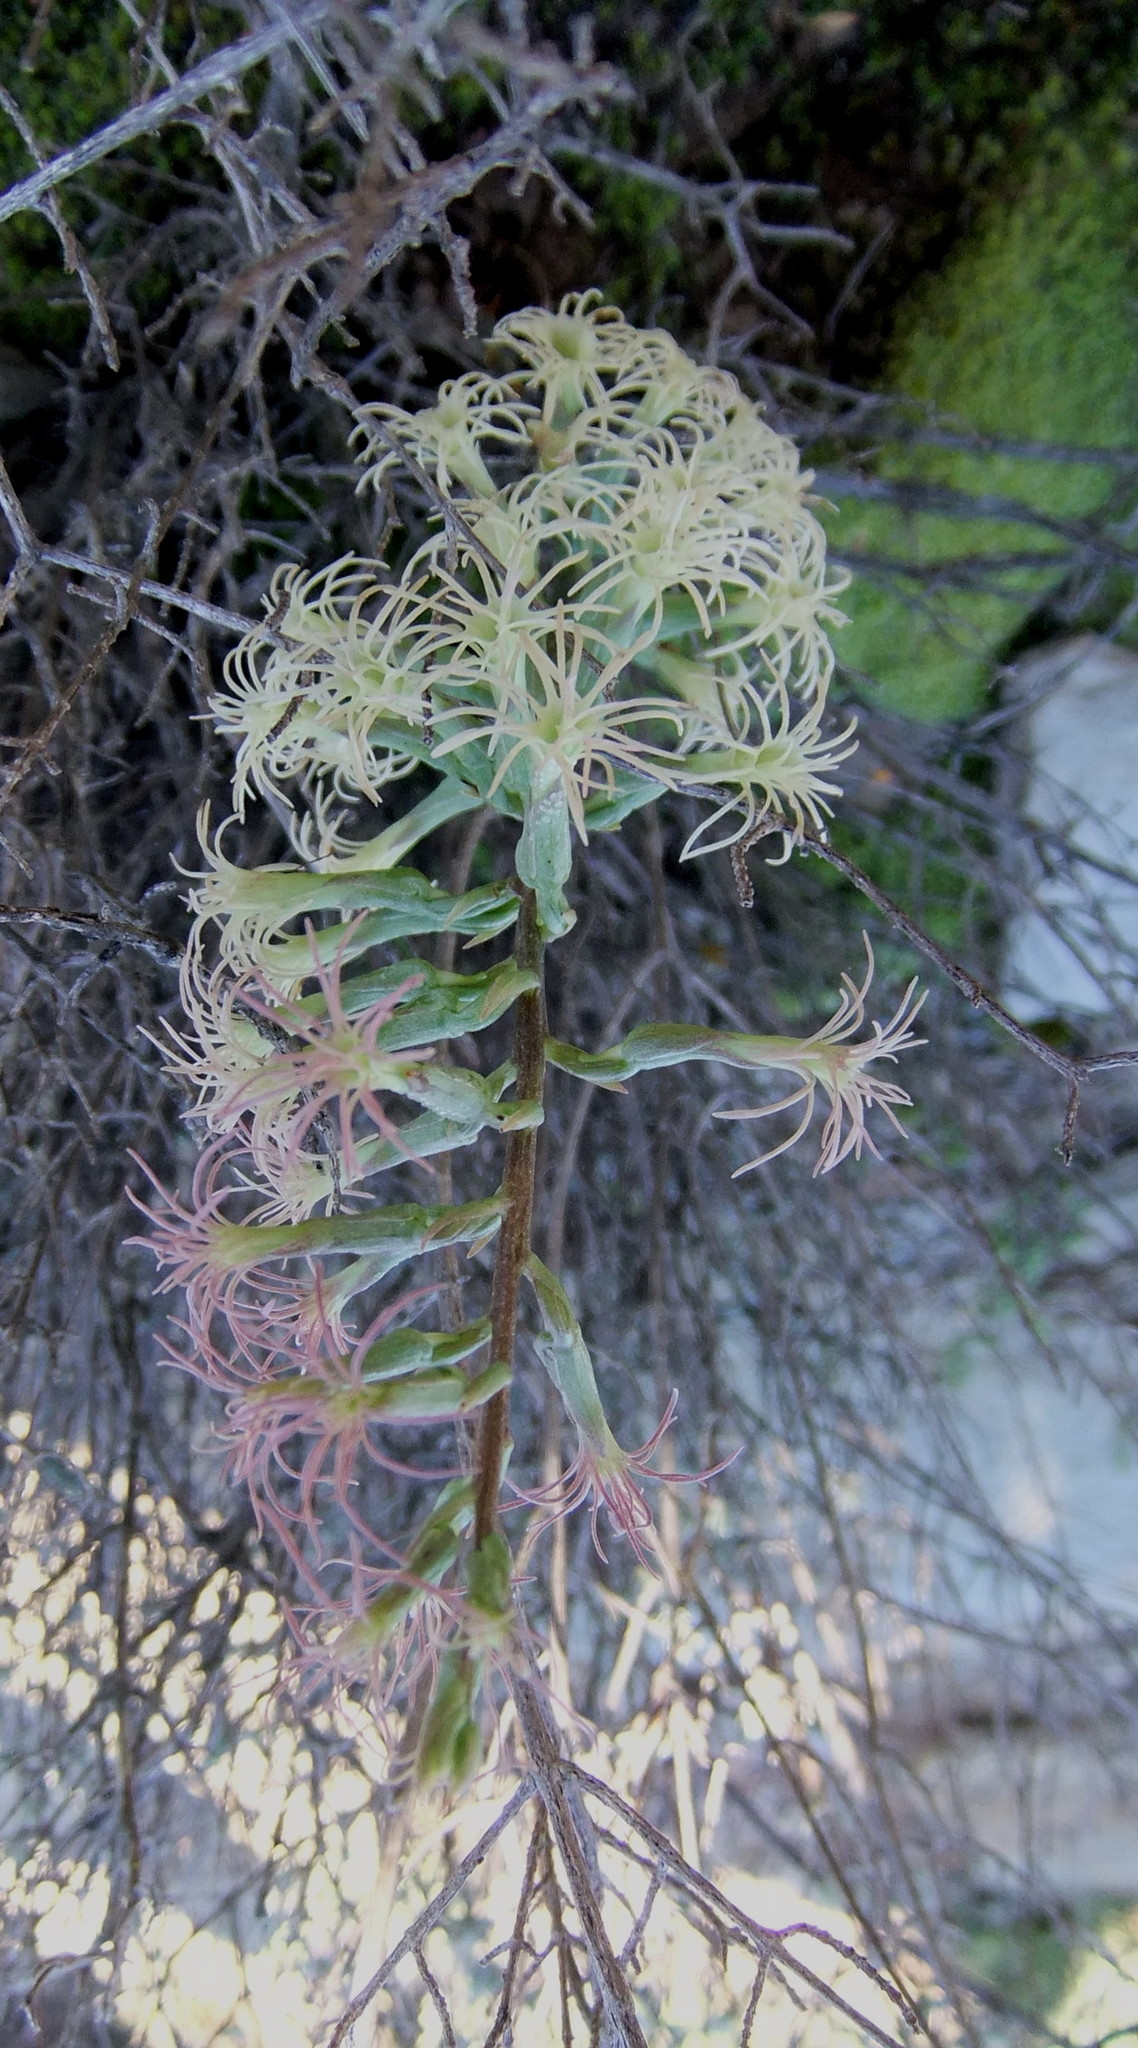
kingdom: Plantae
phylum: Tracheophyta
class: Liliopsida
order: Asparagales
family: Orchidaceae
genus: Holothrix
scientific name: Holothrix grandiflora
